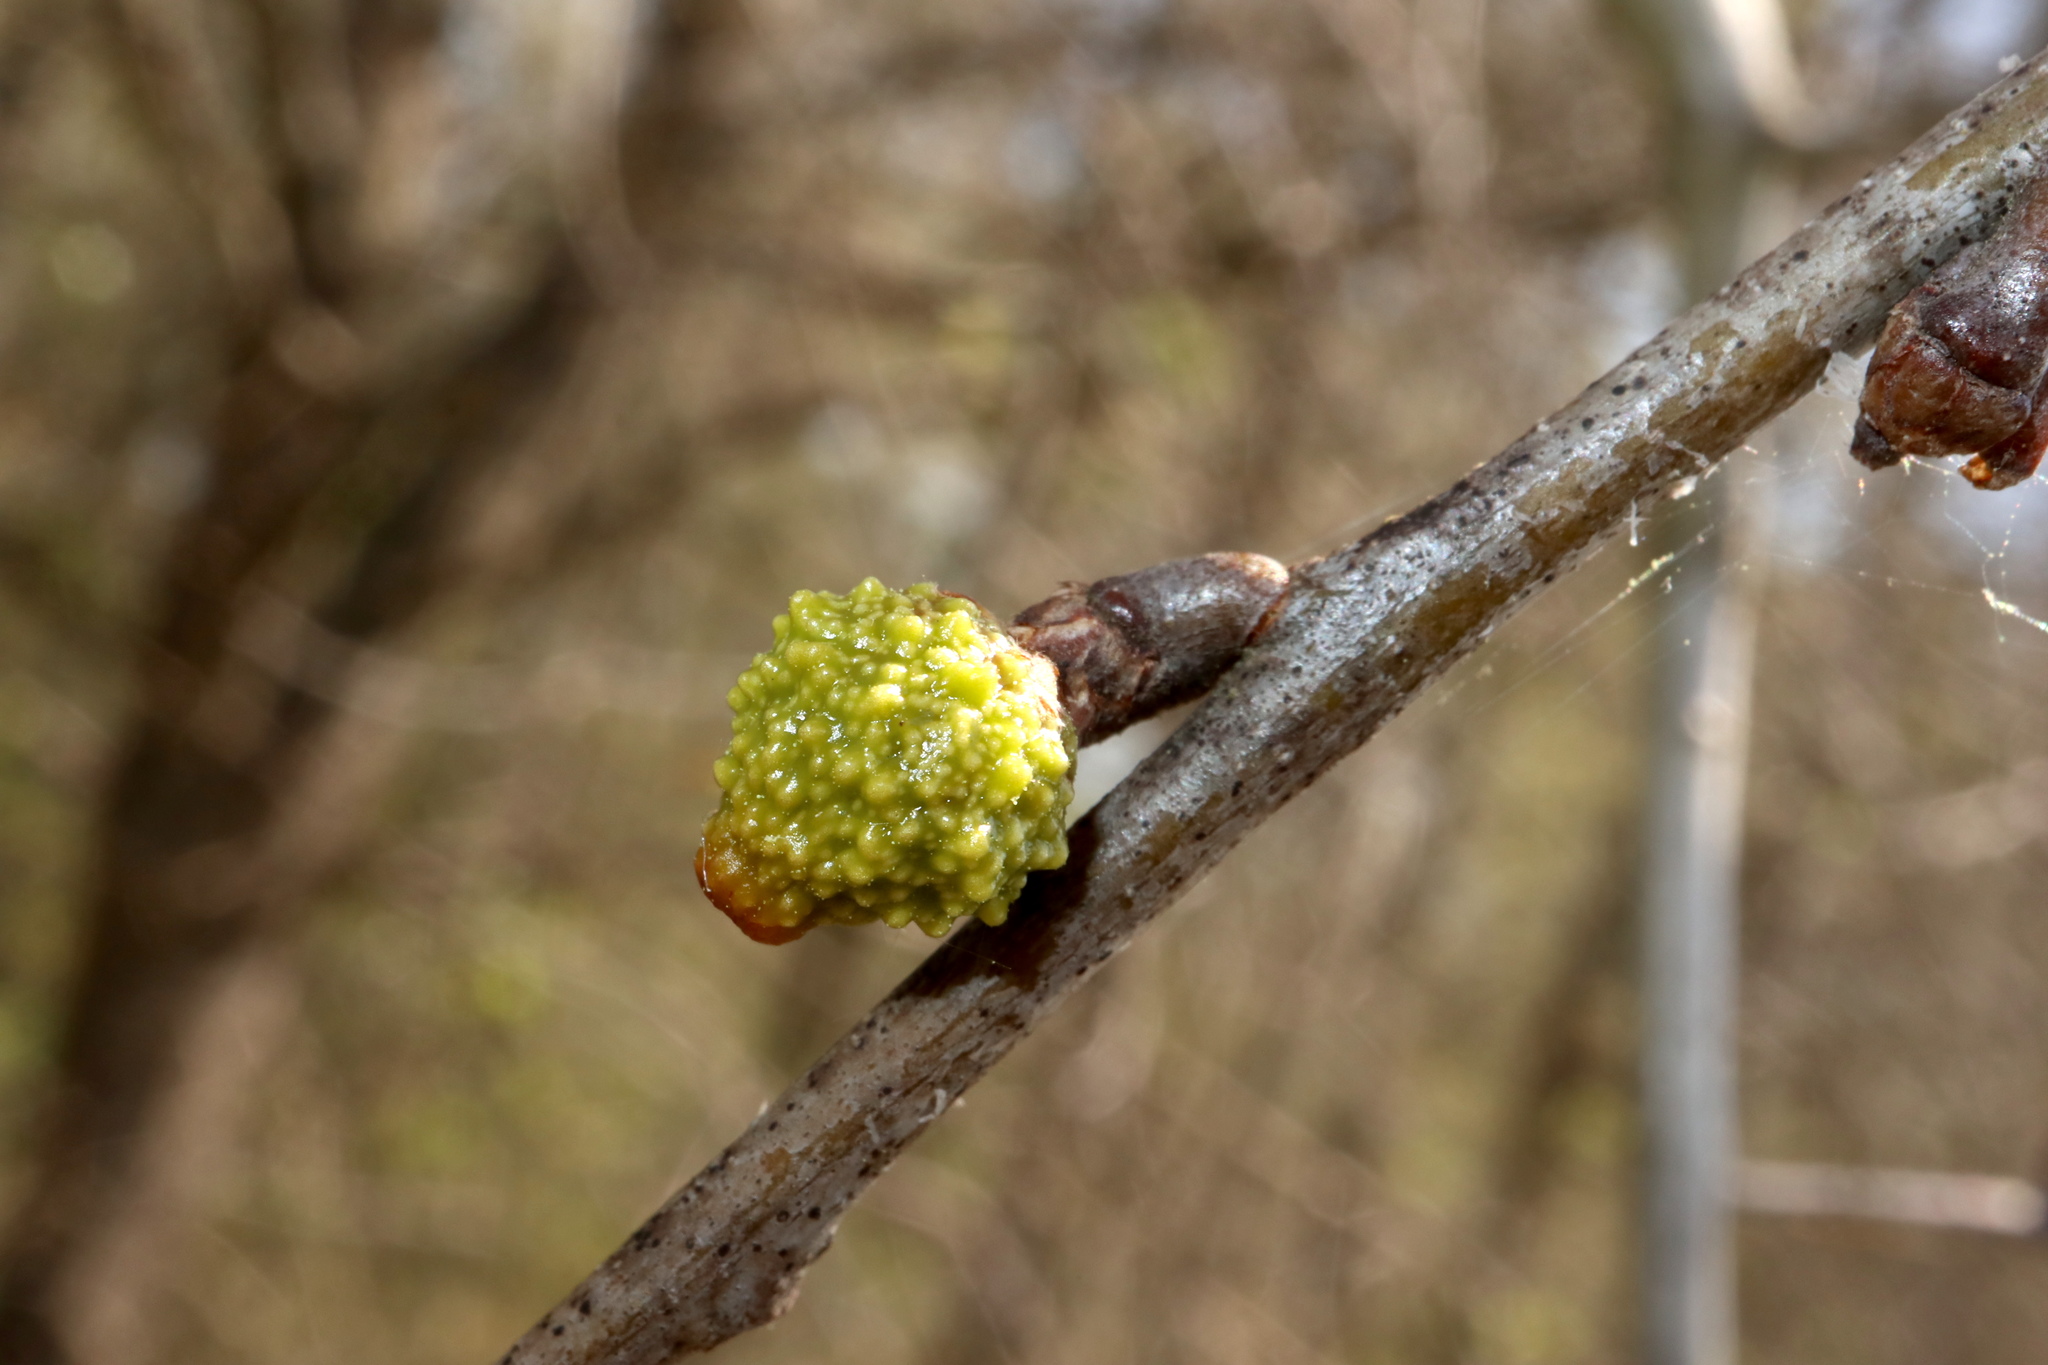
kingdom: Animalia
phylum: Arthropoda
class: Insecta
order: Hymenoptera
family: Cynipidae
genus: Callirhytis
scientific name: Callirhytis
